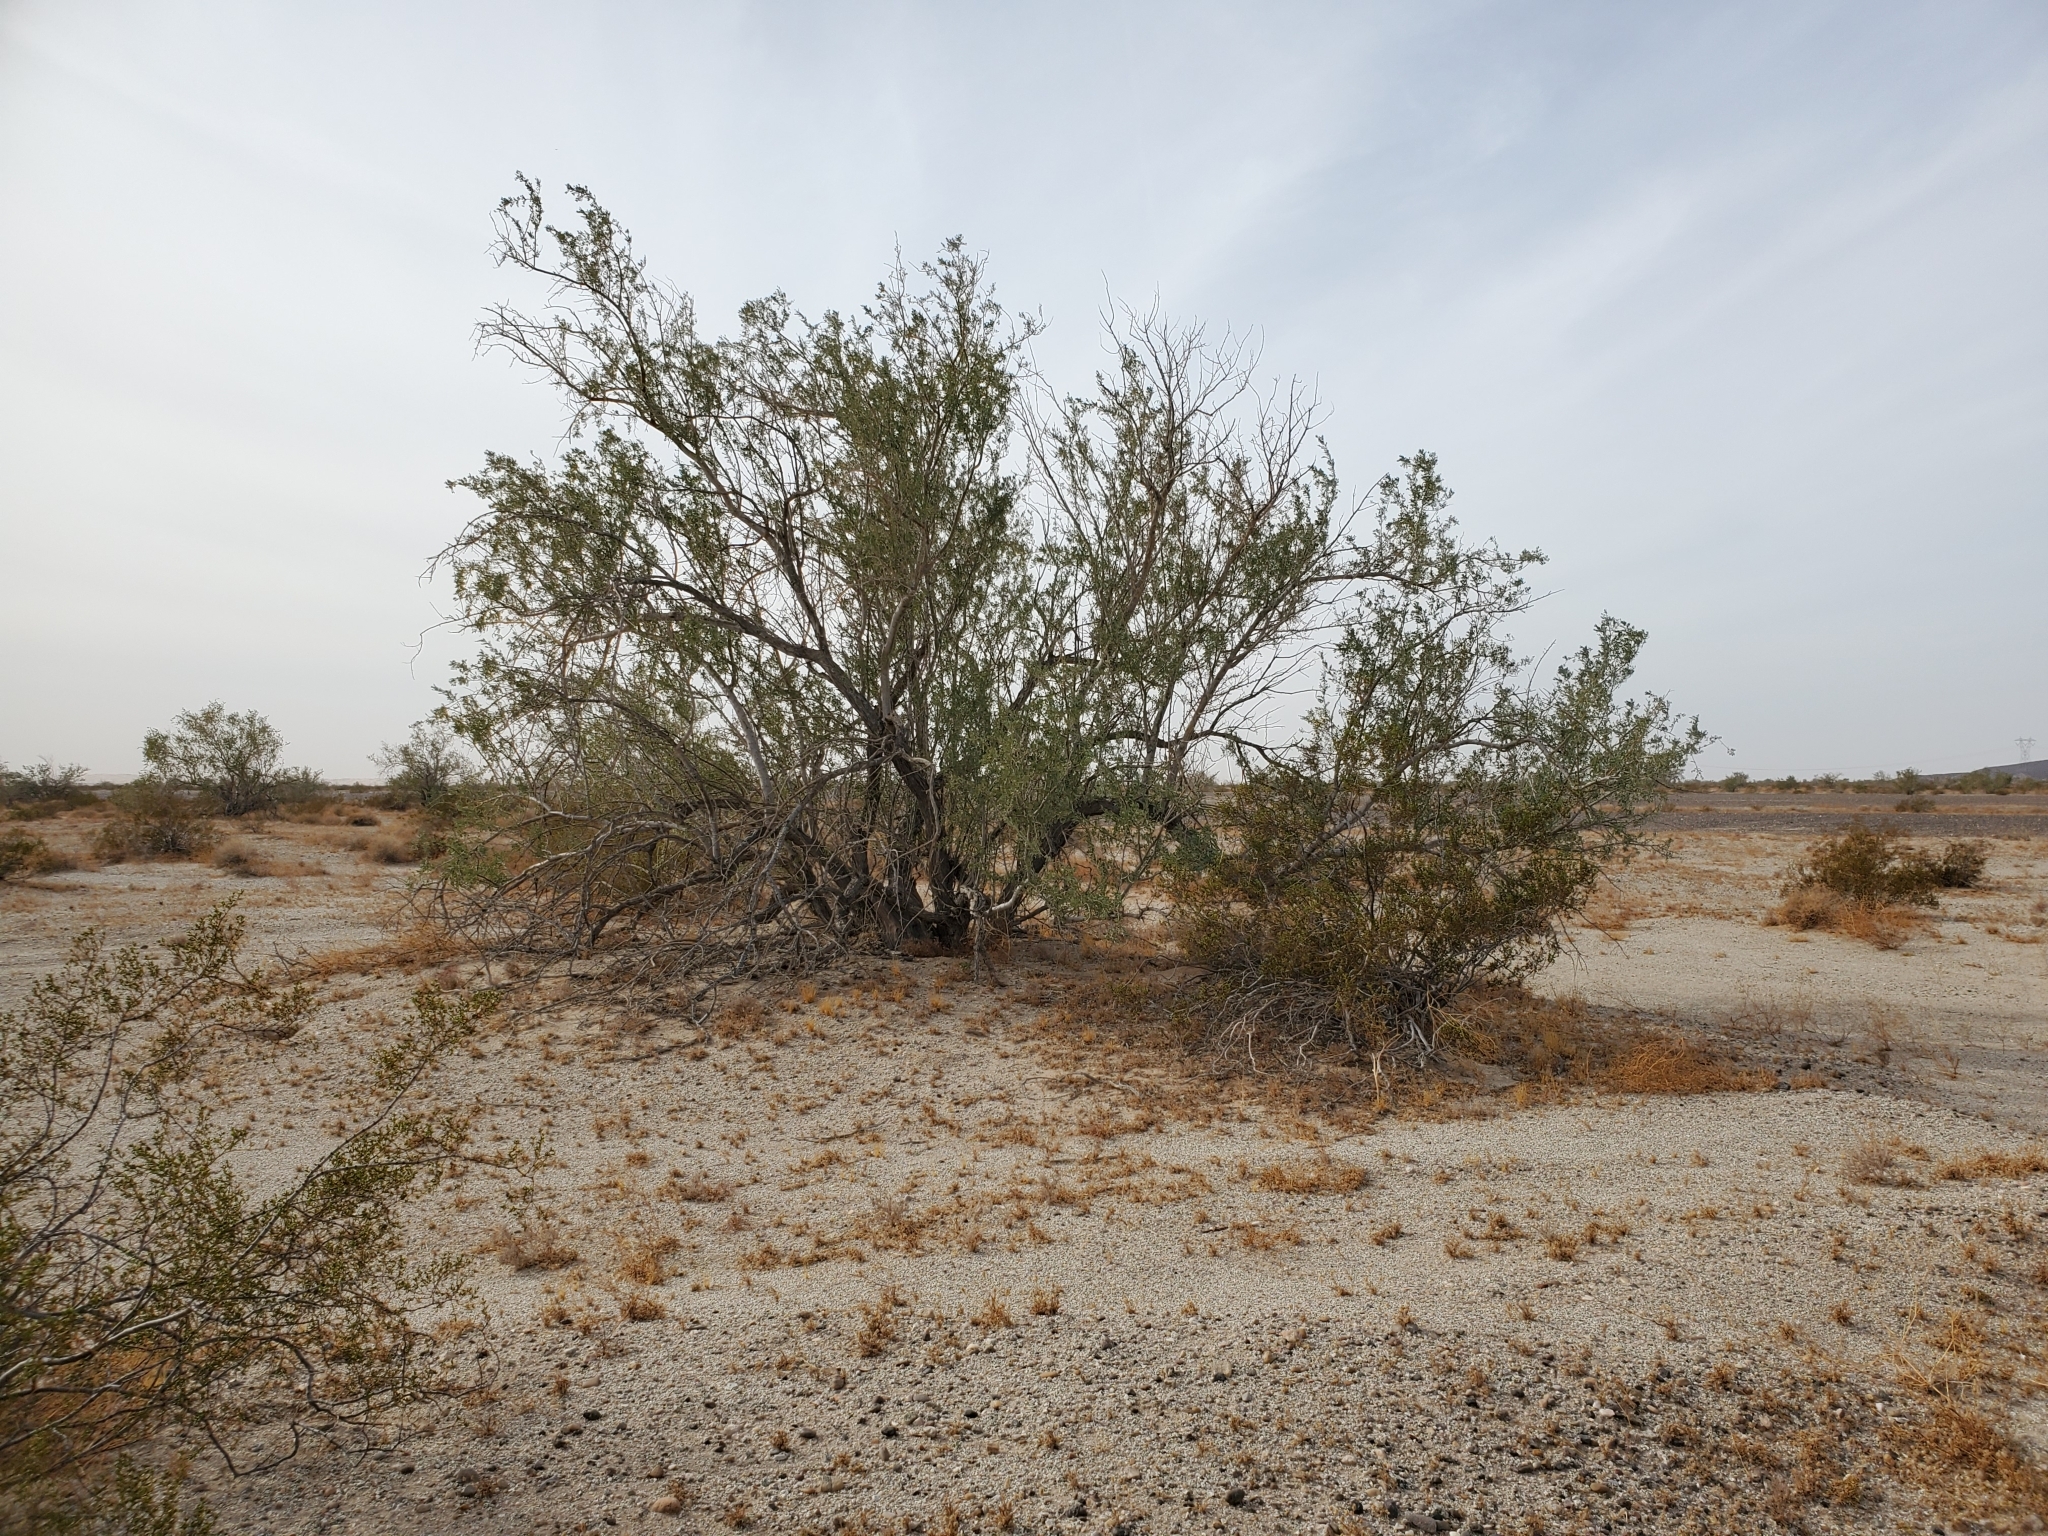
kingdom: Plantae
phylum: Tracheophyta
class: Magnoliopsida
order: Fabales
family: Fabaceae
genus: Olneya
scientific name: Olneya tesota
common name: Desert ironwood
